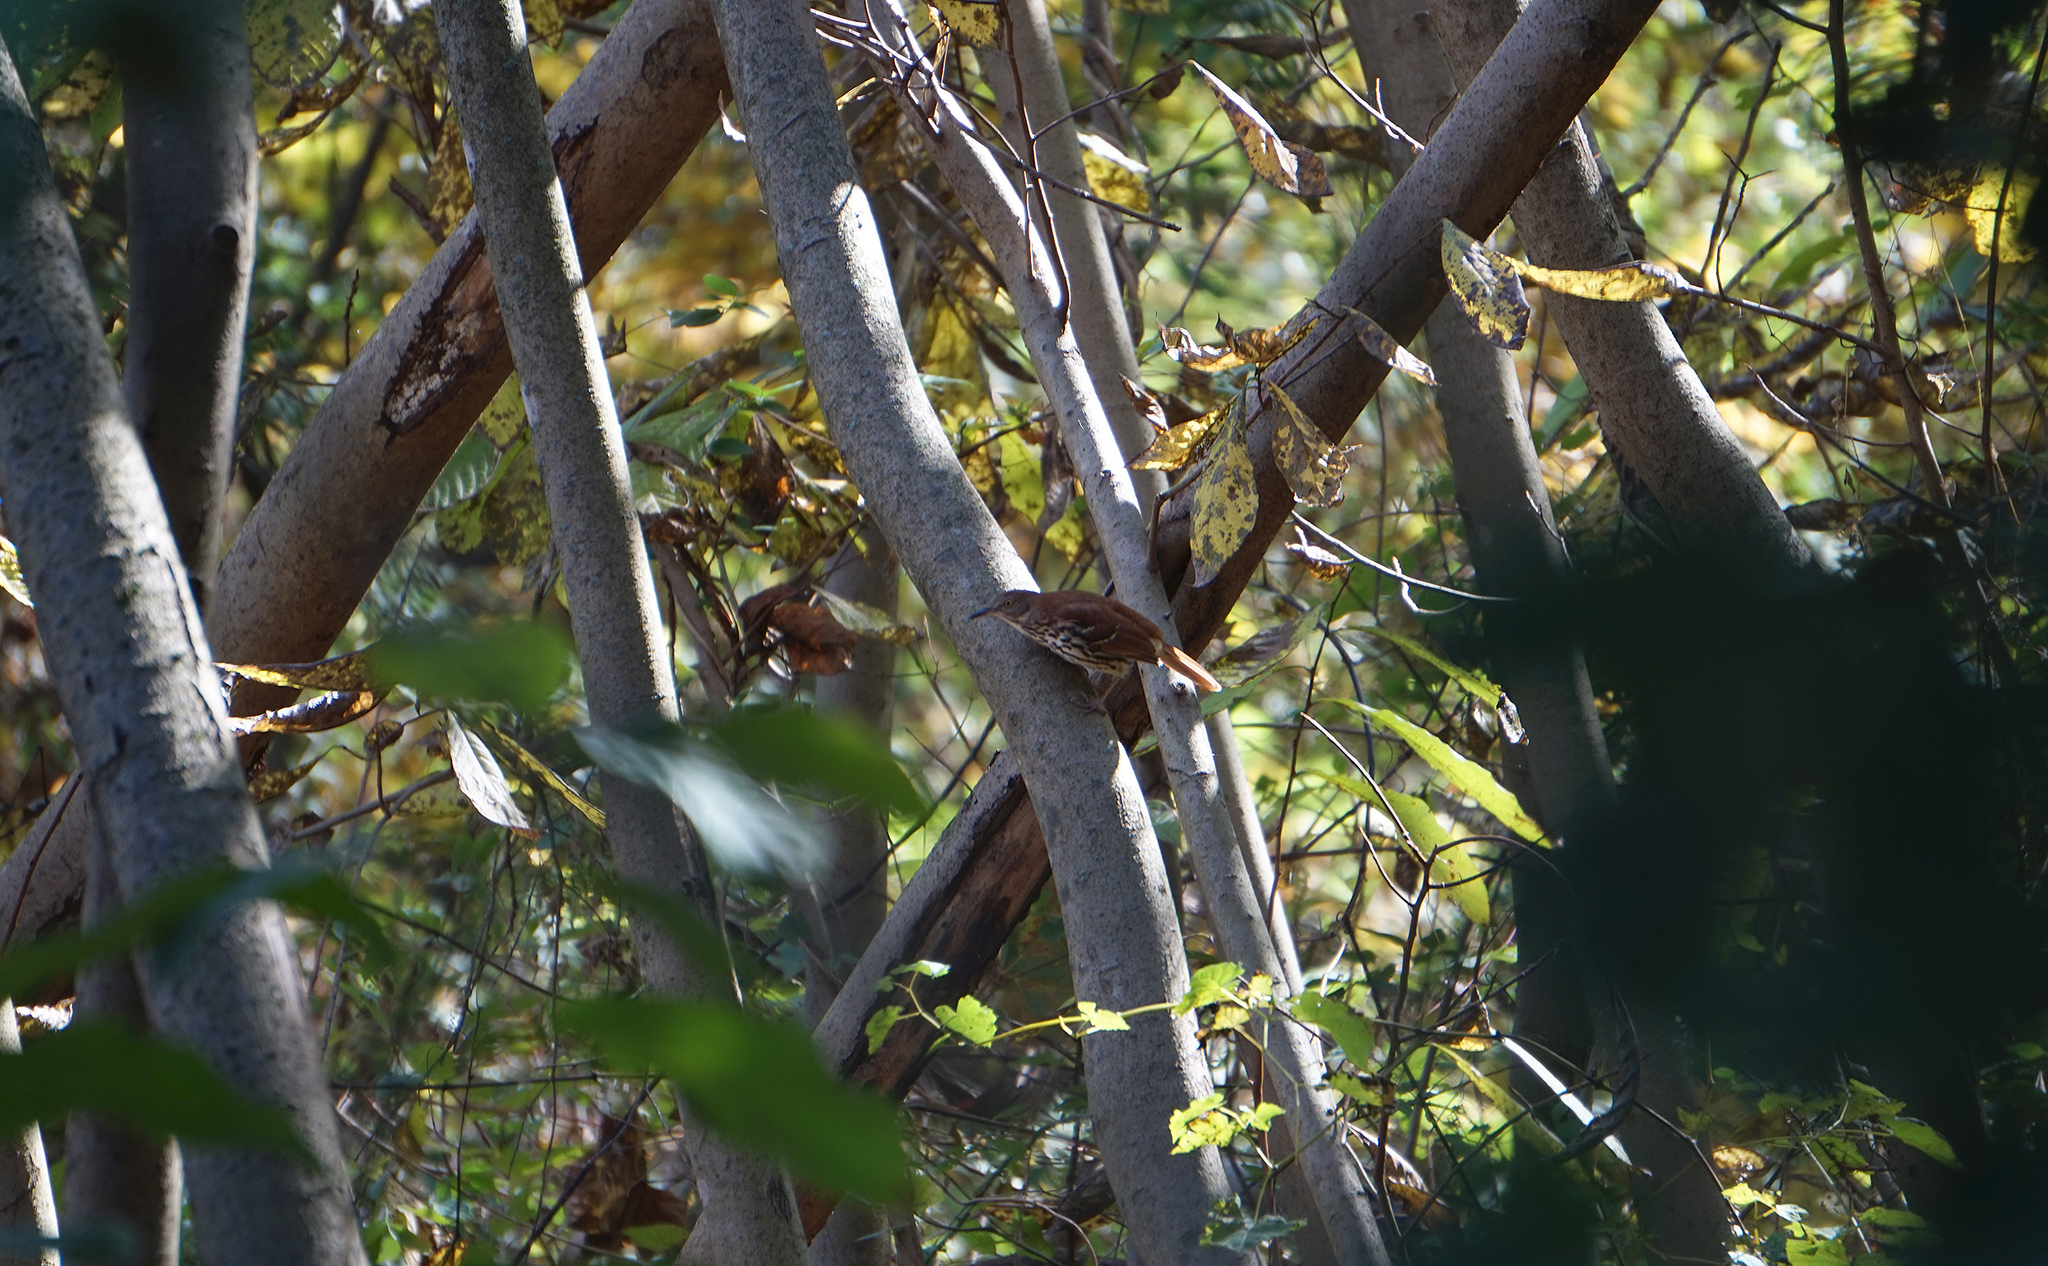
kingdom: Animalia
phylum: Chordata
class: Aves
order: Passeriformes
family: Mimidae
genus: Toxostoma
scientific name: Toxostoma rufum
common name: Brown thrasher
